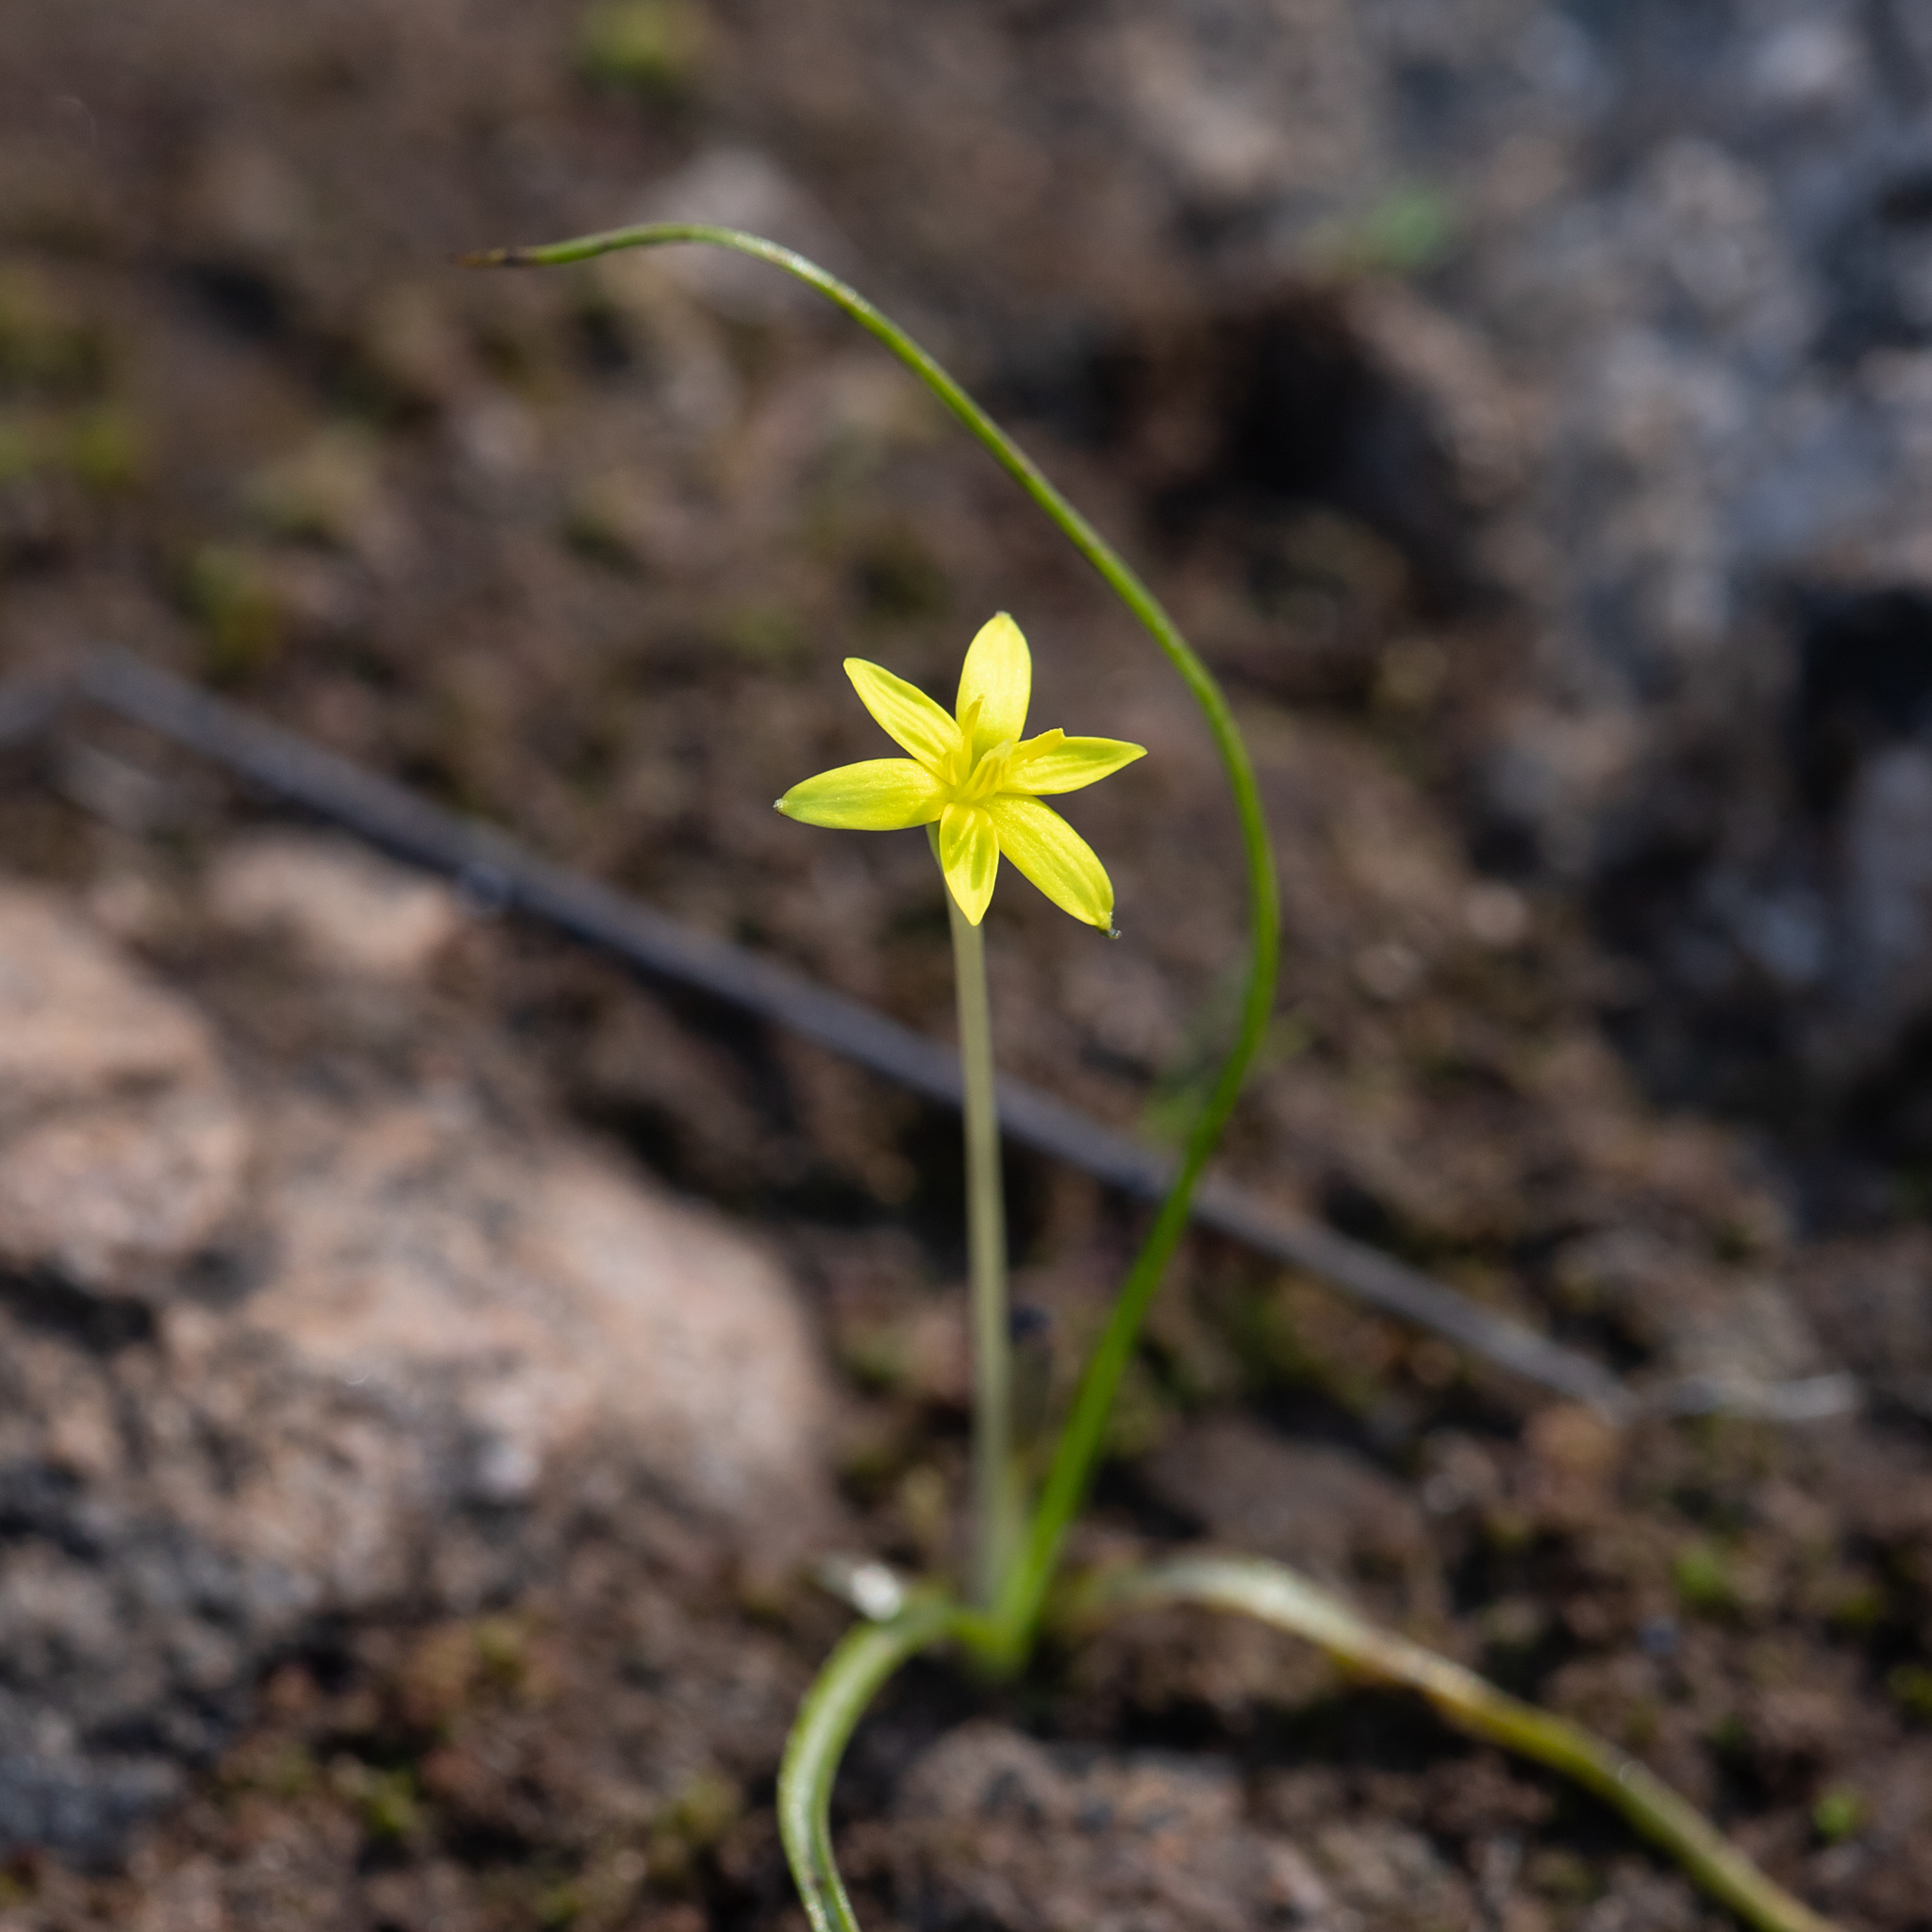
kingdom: Plantae
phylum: Tracheophyta
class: Liliopsida
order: Asparagales
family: Hypoxidaceae
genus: Pauridia
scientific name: Pauridia glabella
